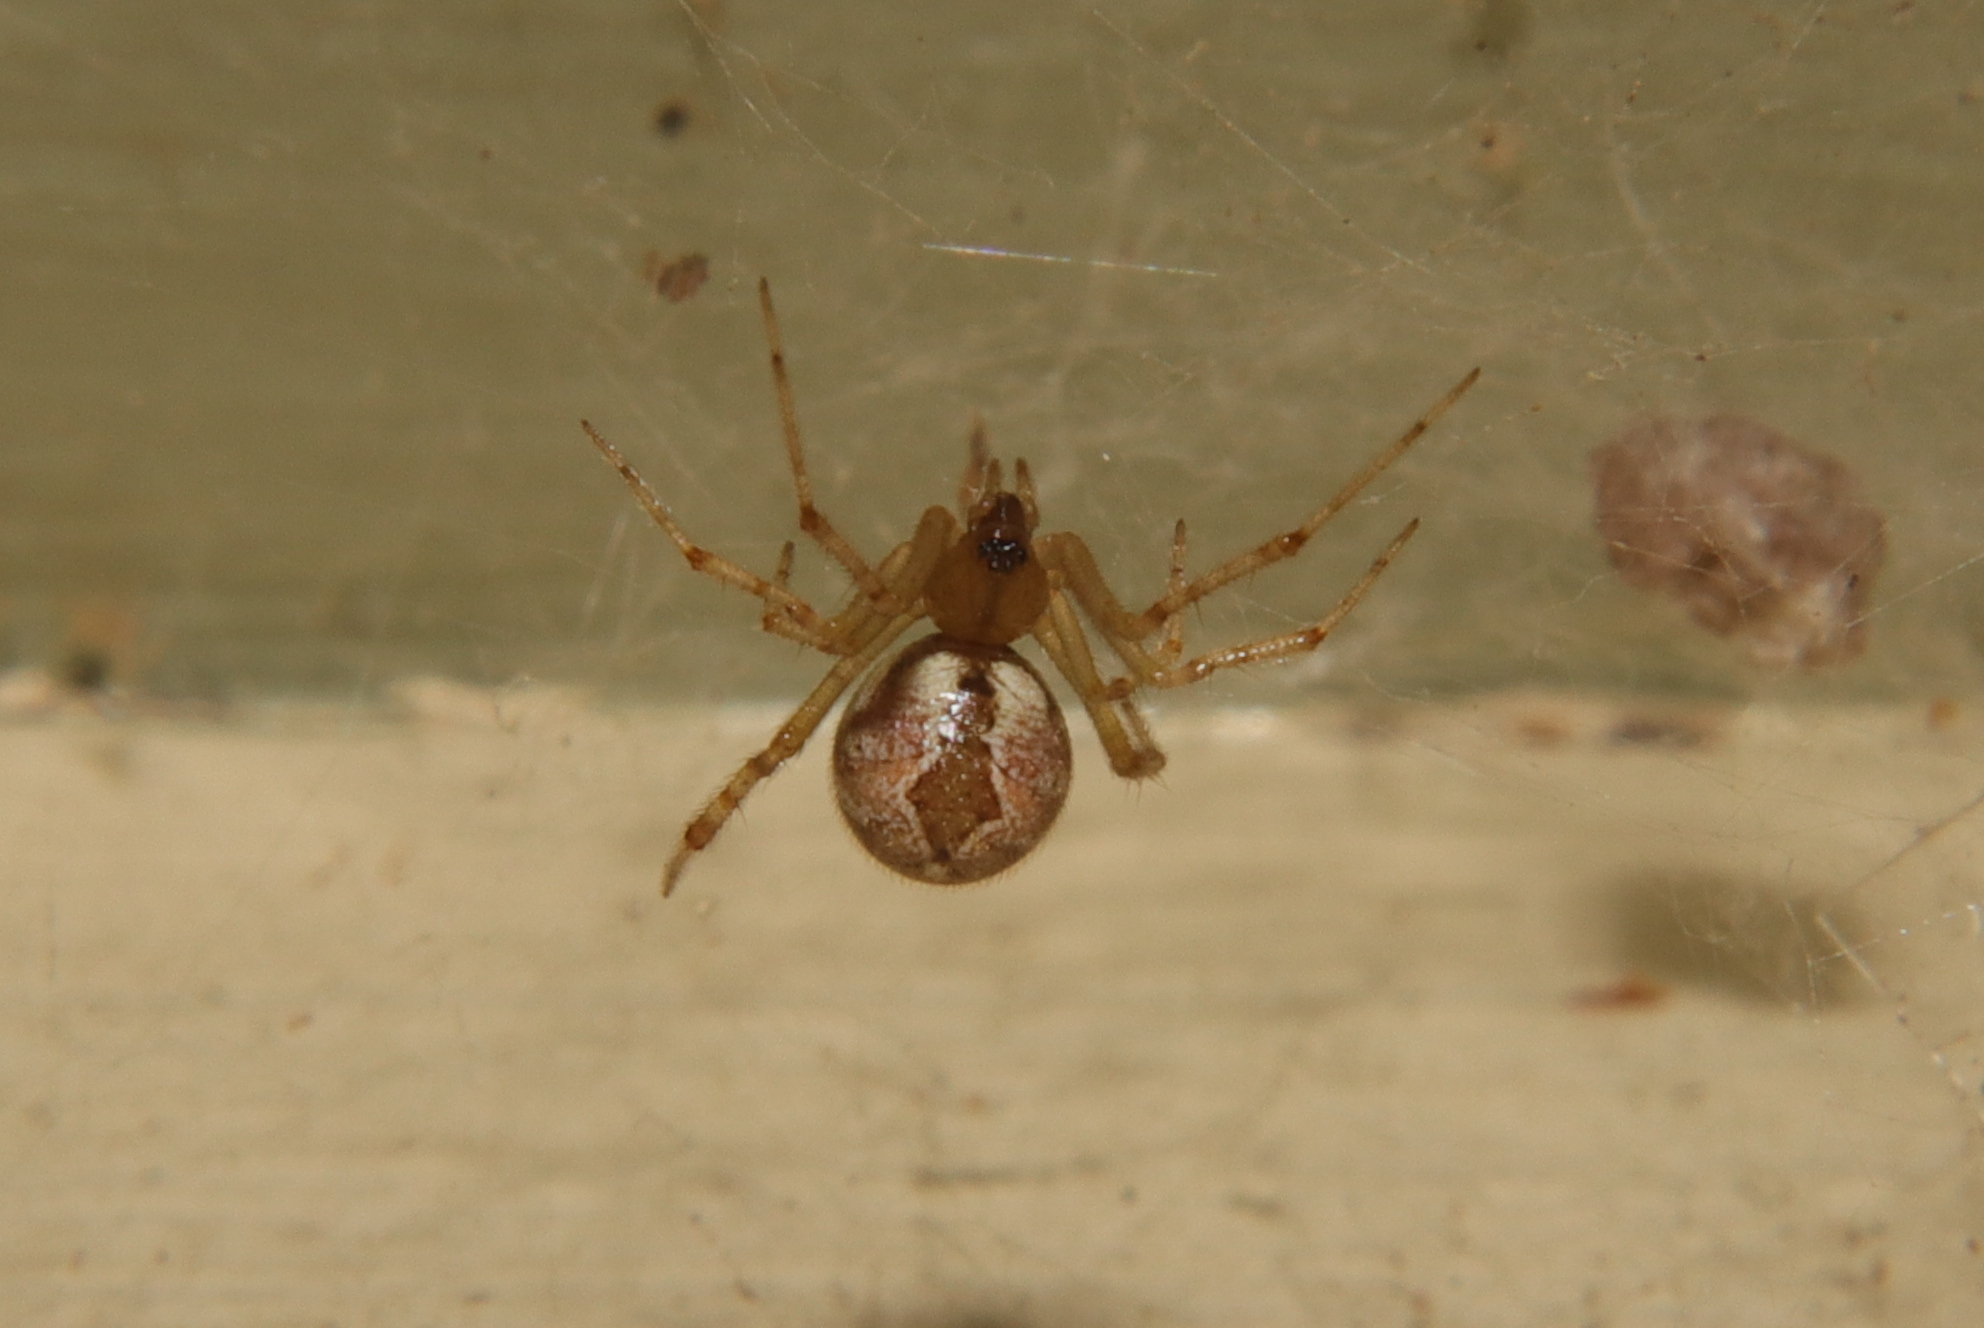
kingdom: Animalia
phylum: Arthropoda
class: Arachnida
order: Araneae
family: Theridiidae
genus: Cryptachaea
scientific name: Cryptachaea veruculata
